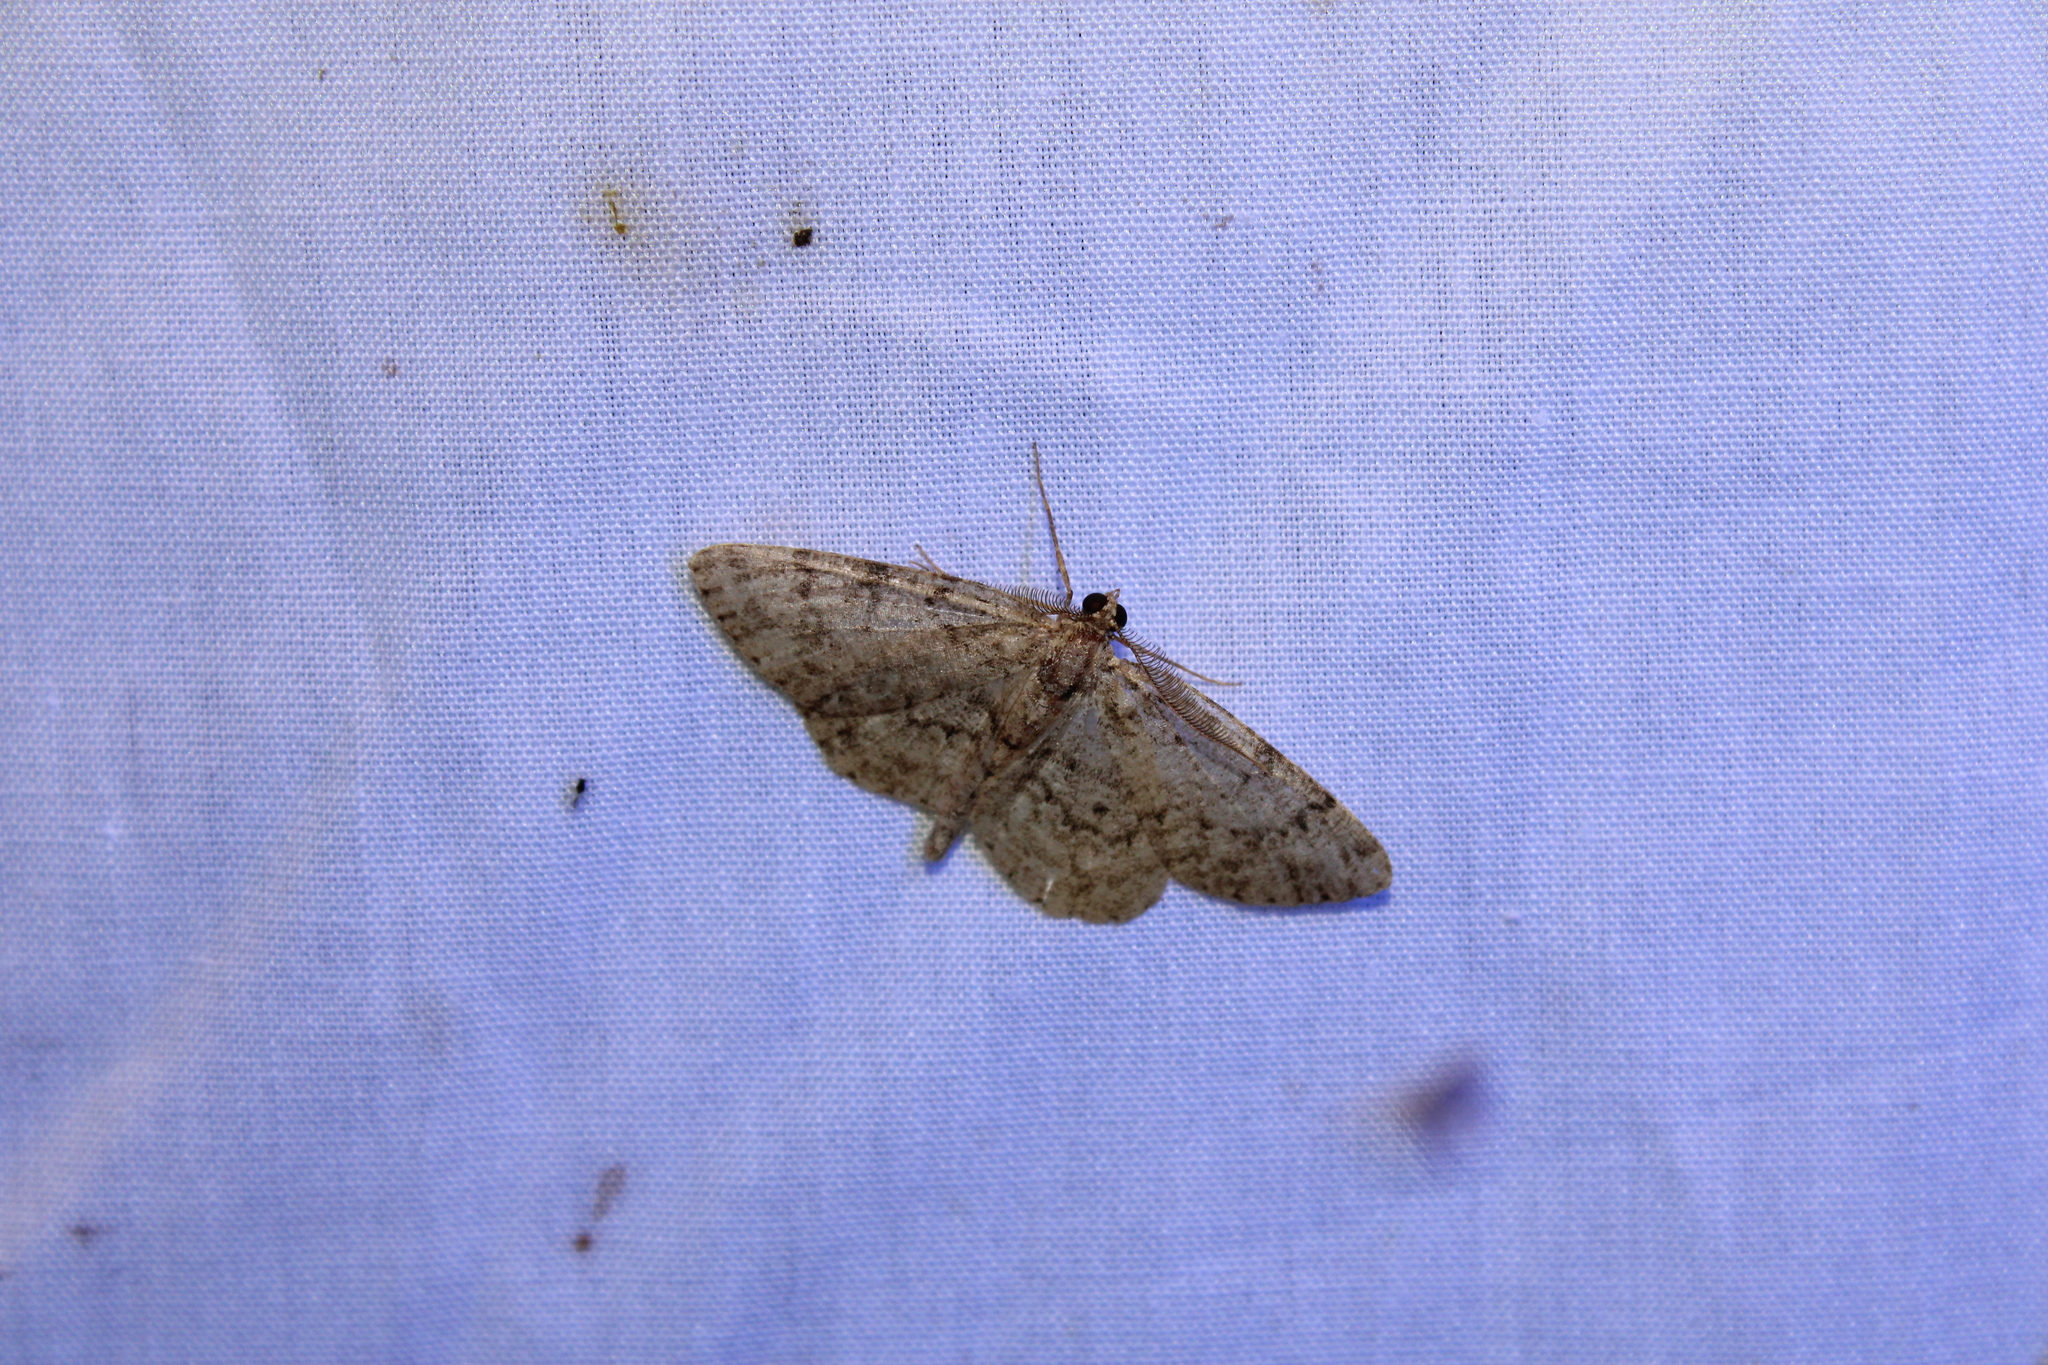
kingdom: Animalia
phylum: Arthropoda
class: Insecta
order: Lepidoptera
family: Geometridae
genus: Protoboarmia
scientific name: Protoboarmia porcelaria
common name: Porcelain gray
